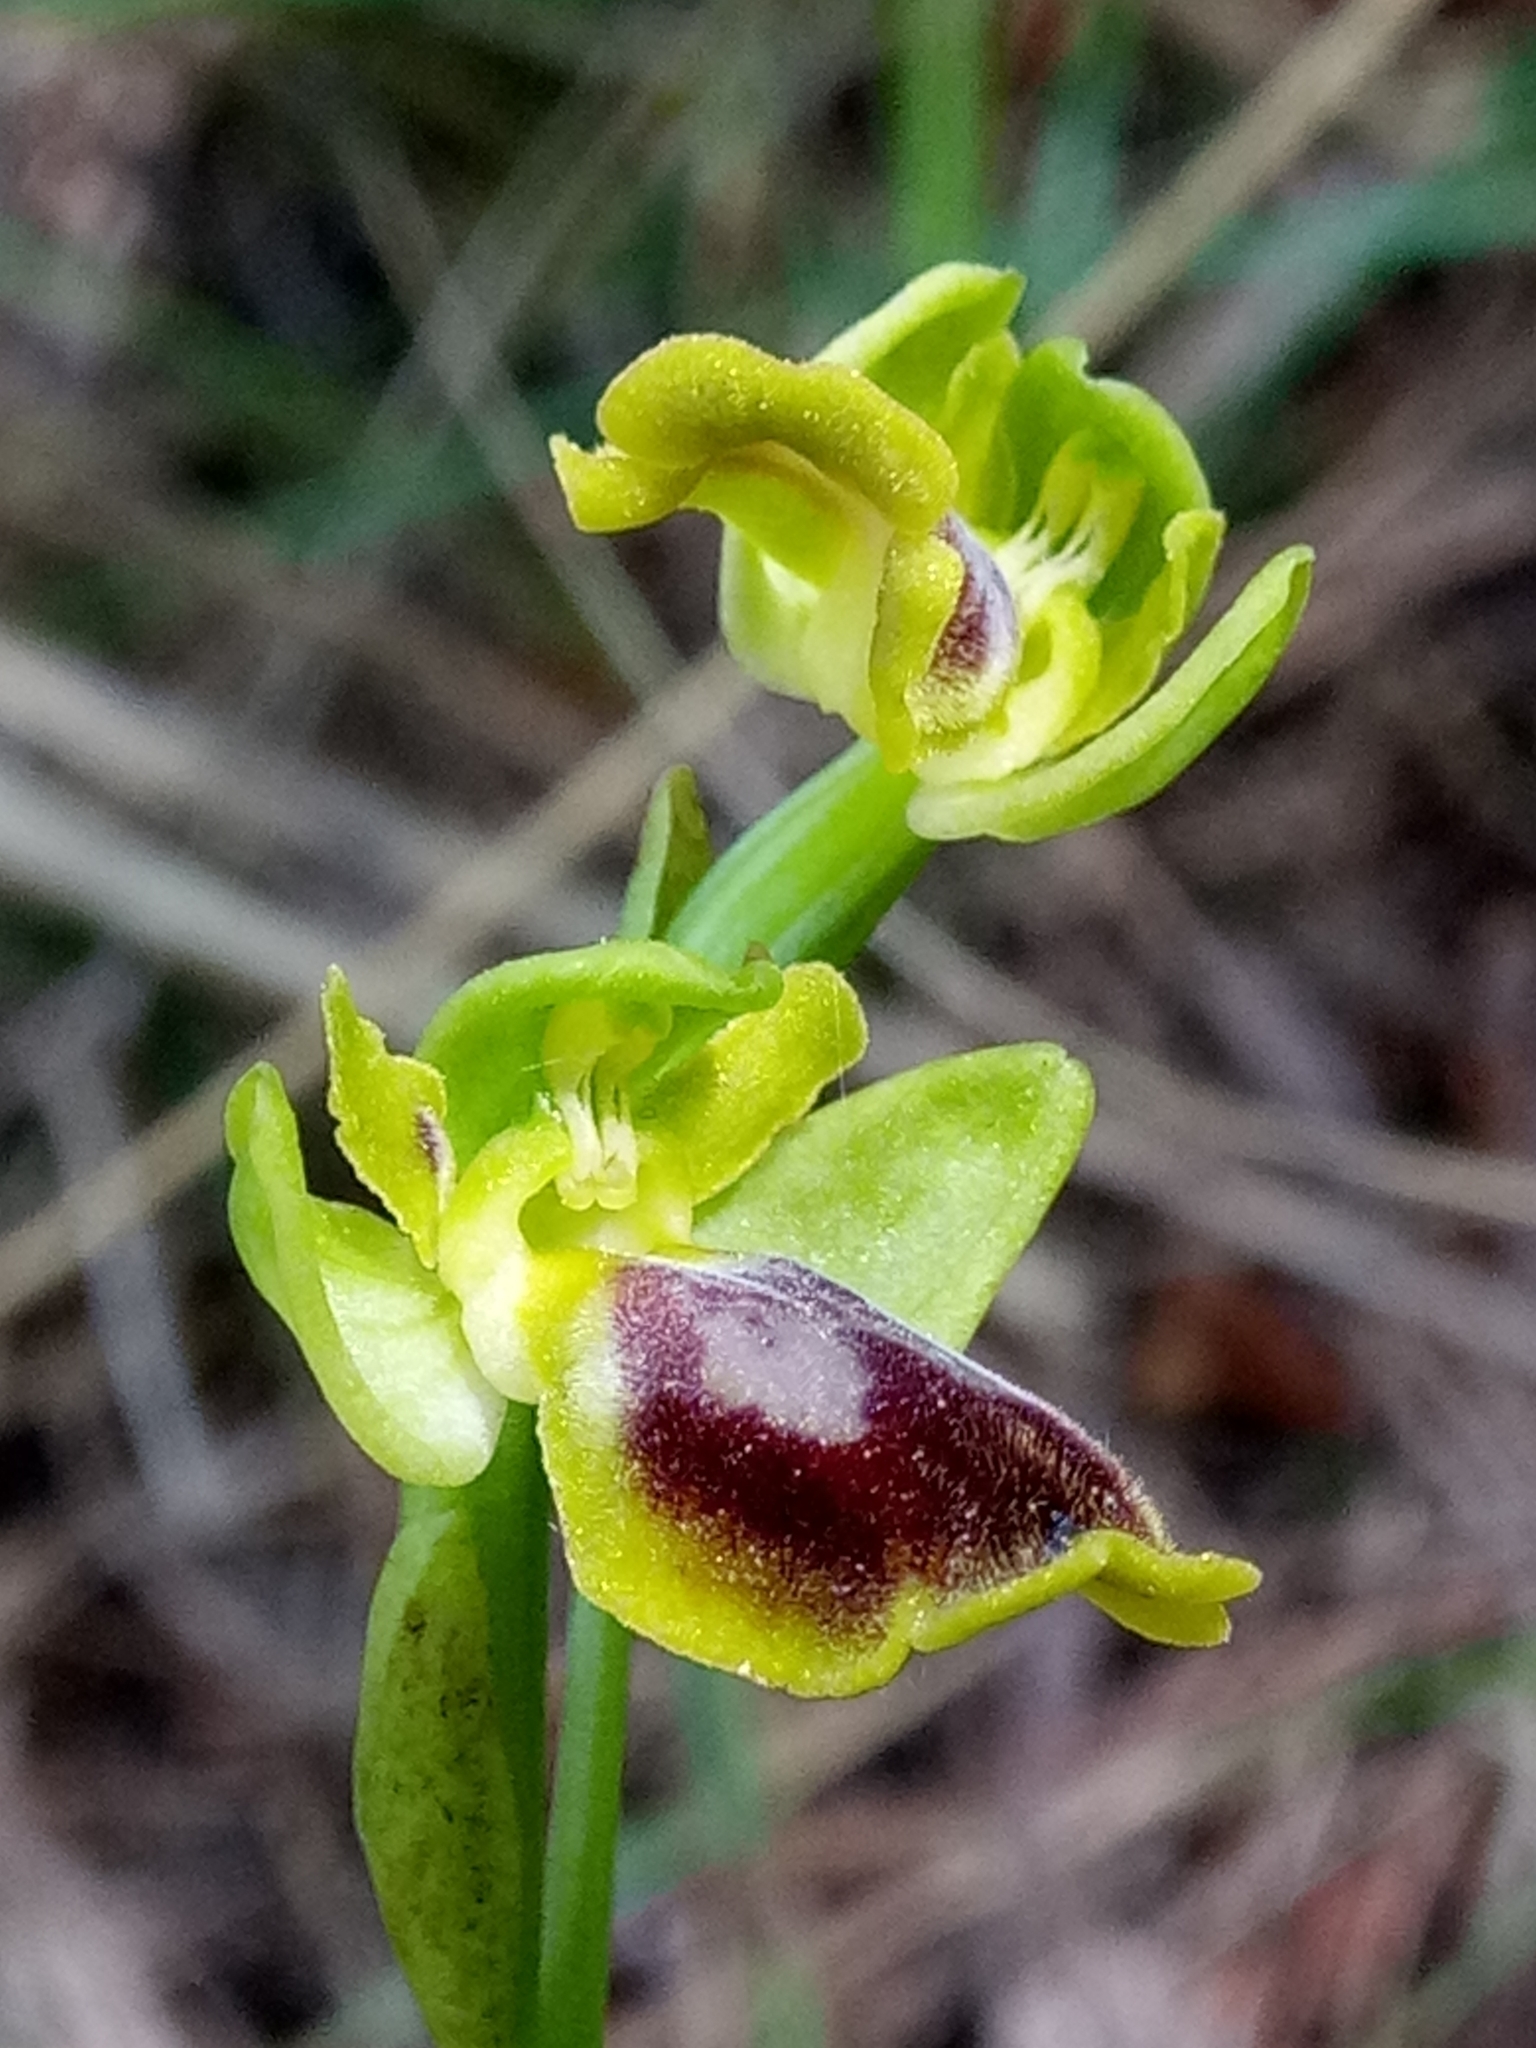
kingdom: Plantae
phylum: Tracheophyta
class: Liliopsida
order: Asparagales
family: Orchidaceae
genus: Ophrys
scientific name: Ophrys lutea
